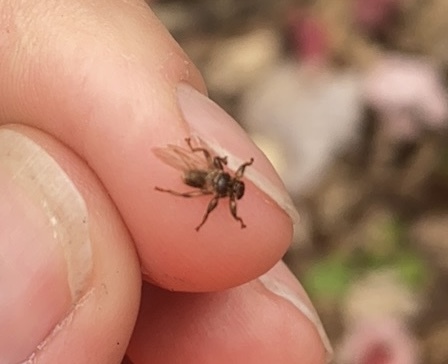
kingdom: Animalia
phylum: Arthropoda
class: Insecta
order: Diptera
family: Hippoboscidae
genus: Lipoptena
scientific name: Lipoptena cervi
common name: Deer ked
